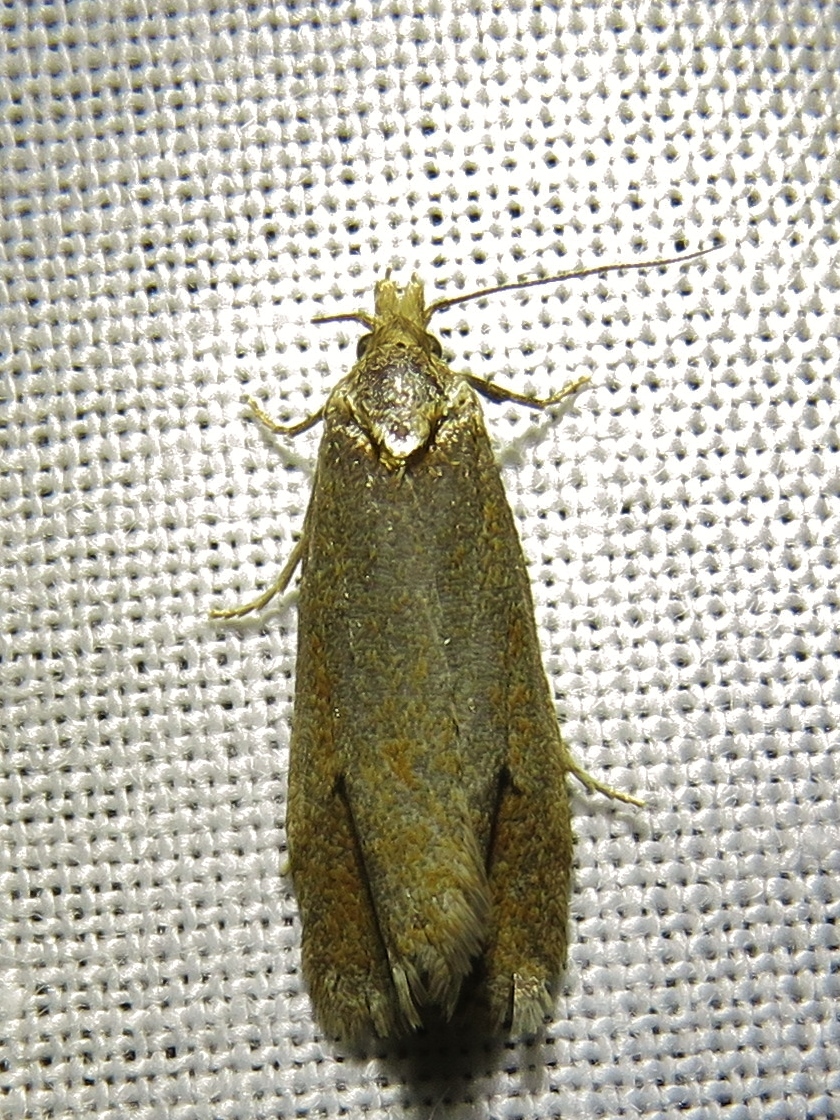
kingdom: Animalia
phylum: Arthropoda
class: Insecta
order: Lepidoptera
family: Tortricidae
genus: Phtheochroa
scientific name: Phtheochroa inopiana
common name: Plain conch
